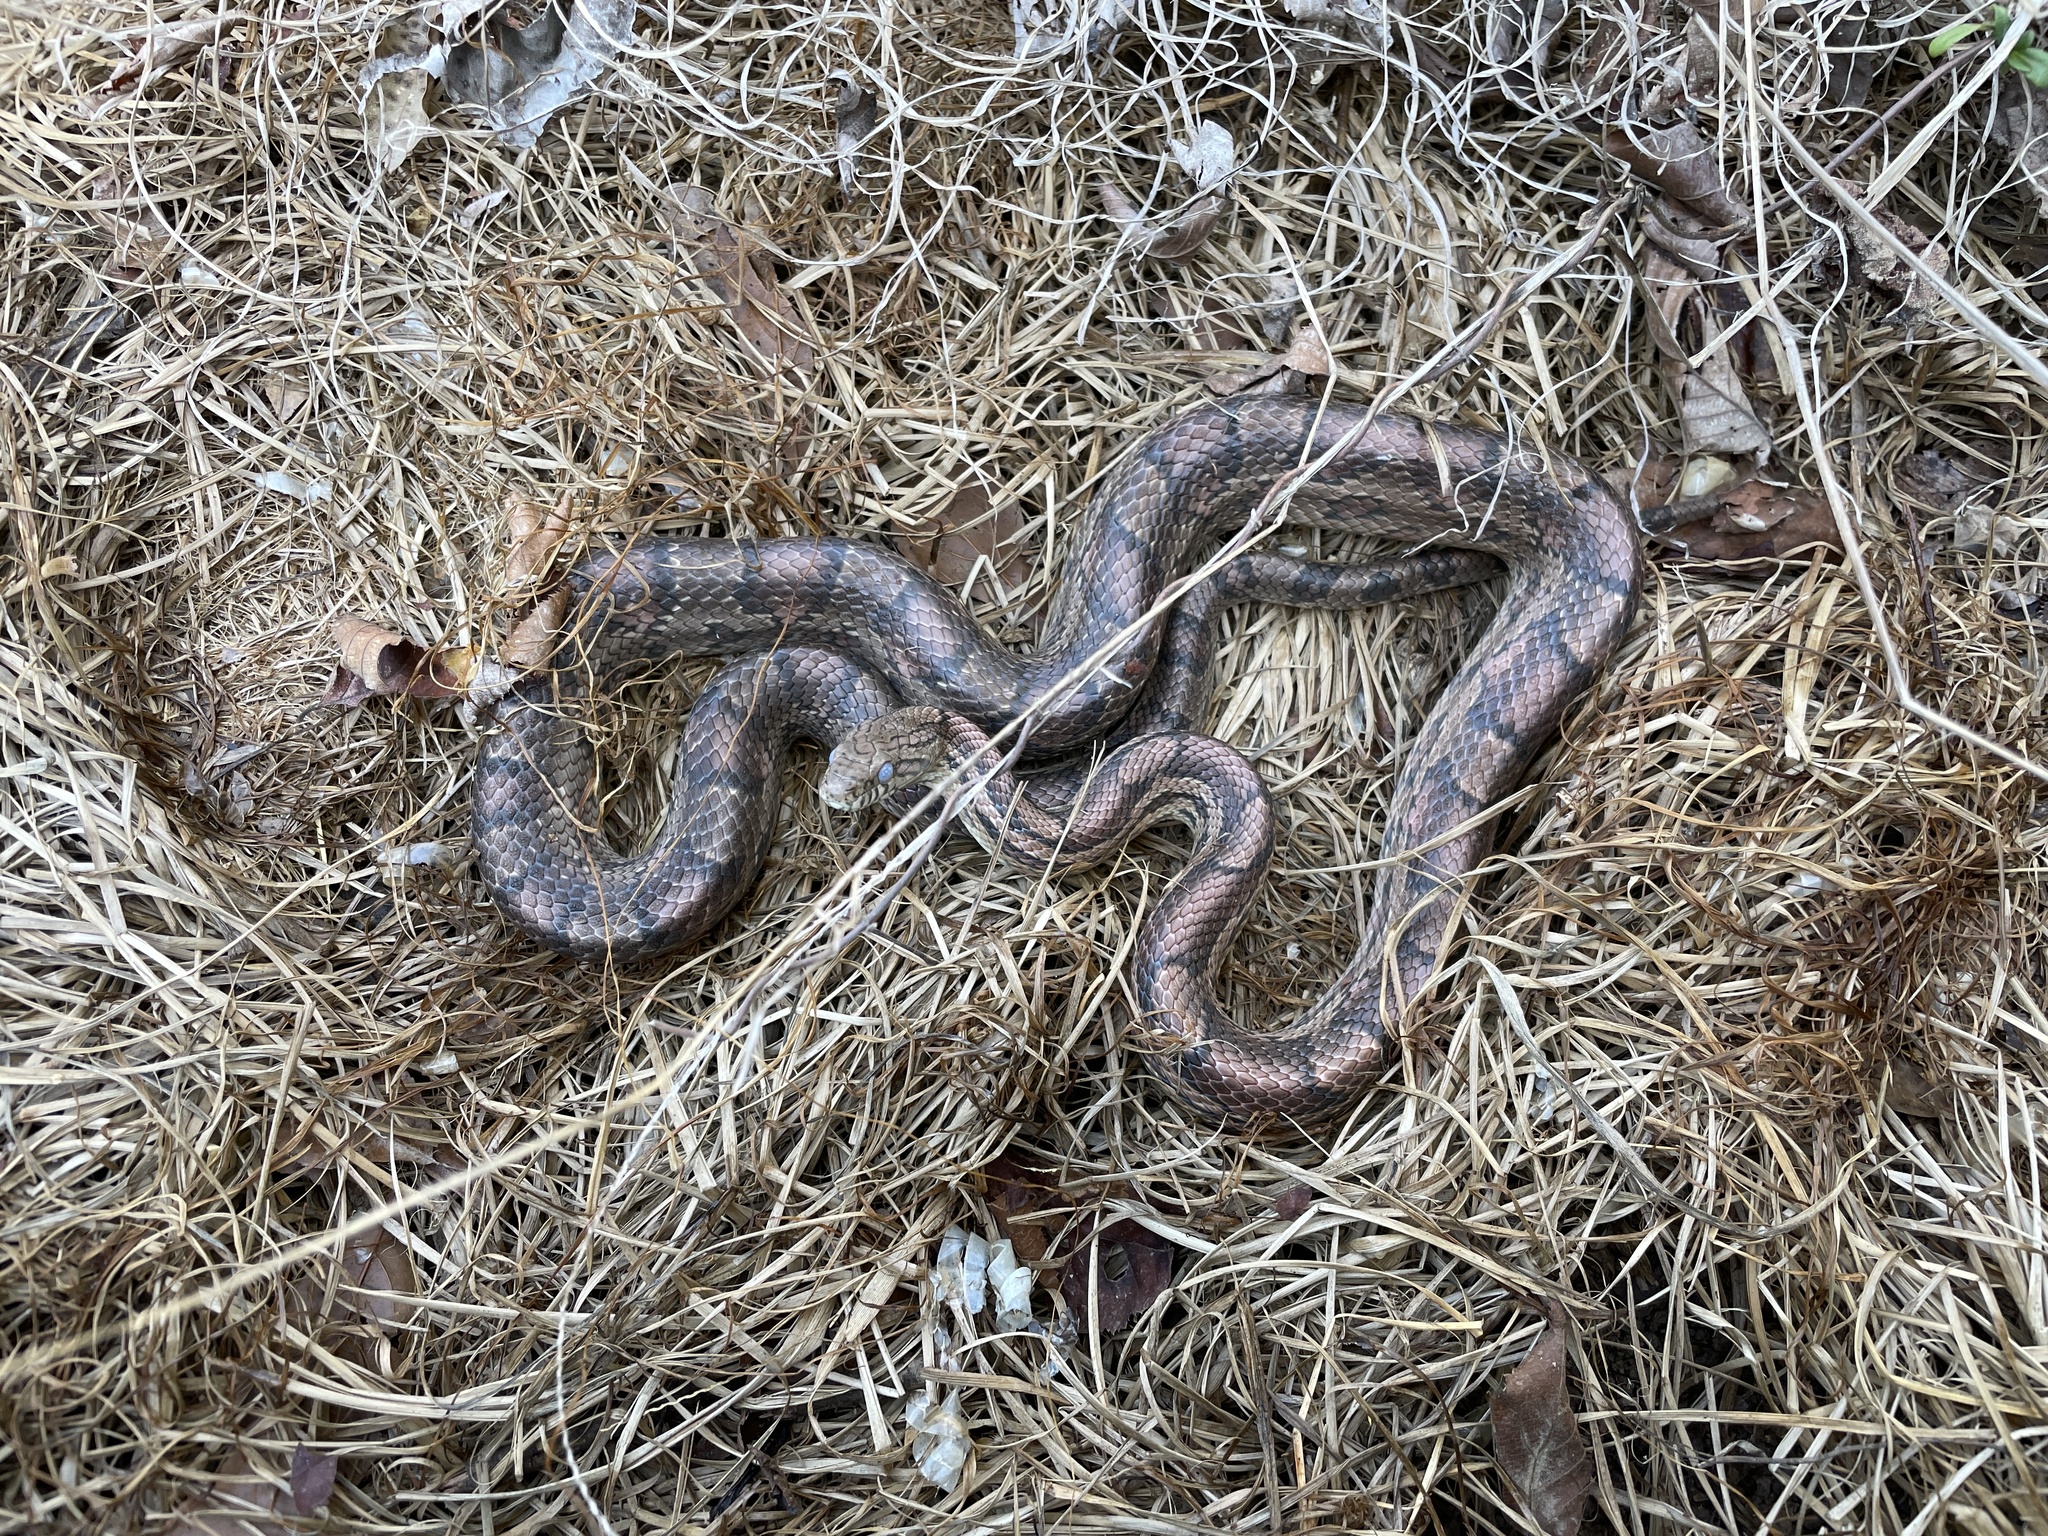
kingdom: Animalia
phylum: Chordata
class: Squamata
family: Colubridae
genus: Pantherophis
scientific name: Pantherophis guttatus
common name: Red cornsnake
